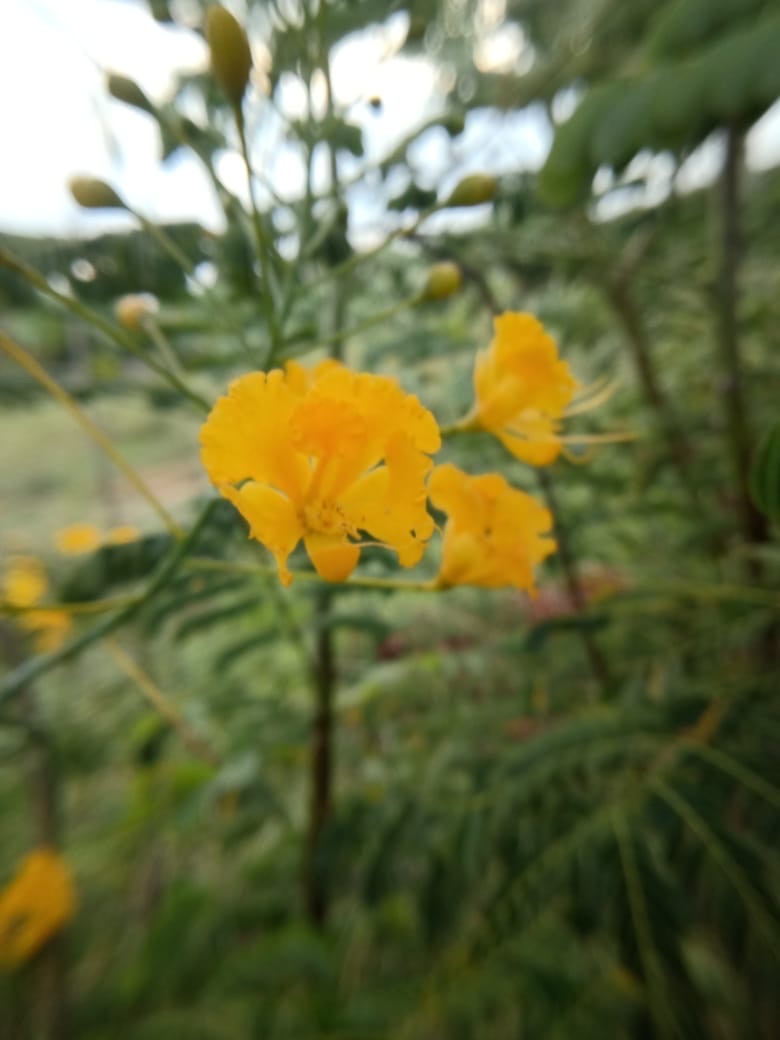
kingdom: Plantae
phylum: Tracheophyta
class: Magnoliopsida
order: Fabales
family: Fabaceae
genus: Caesalpinia
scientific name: Caesalpinia pulcherrima
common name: Pride-of-barbados
